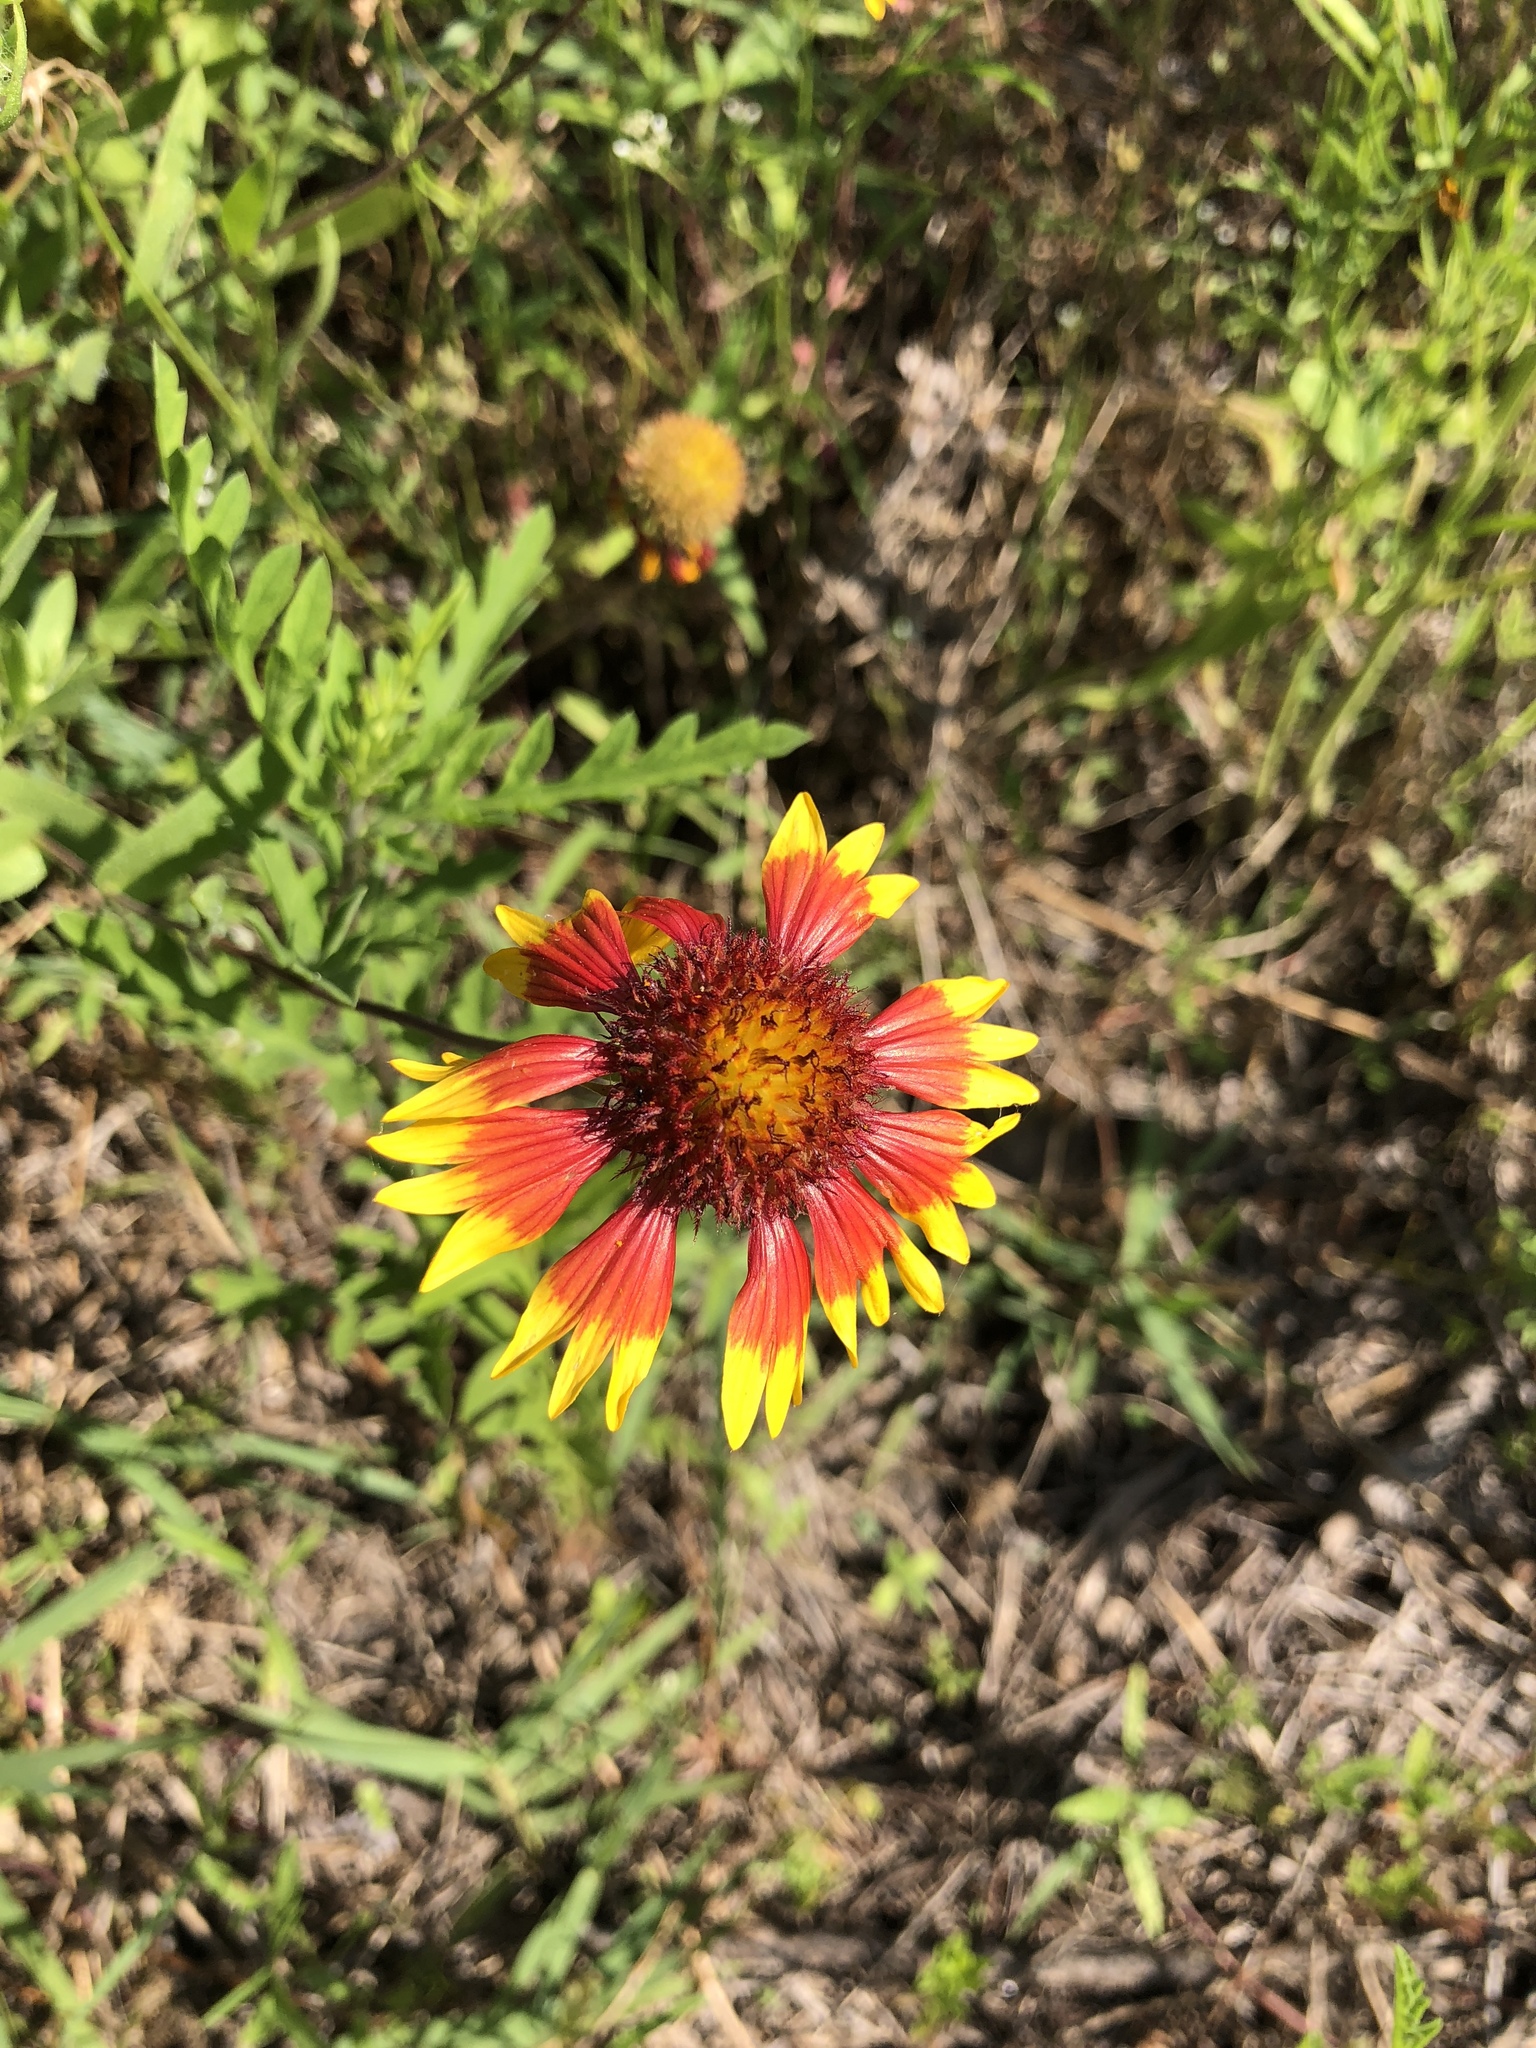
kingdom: Plantae
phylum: Tracheophyta
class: Magnoliopsida
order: Asterales
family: Asteraceae
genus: Gaillardia
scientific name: Gaillardia pulchella
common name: Firewheel
